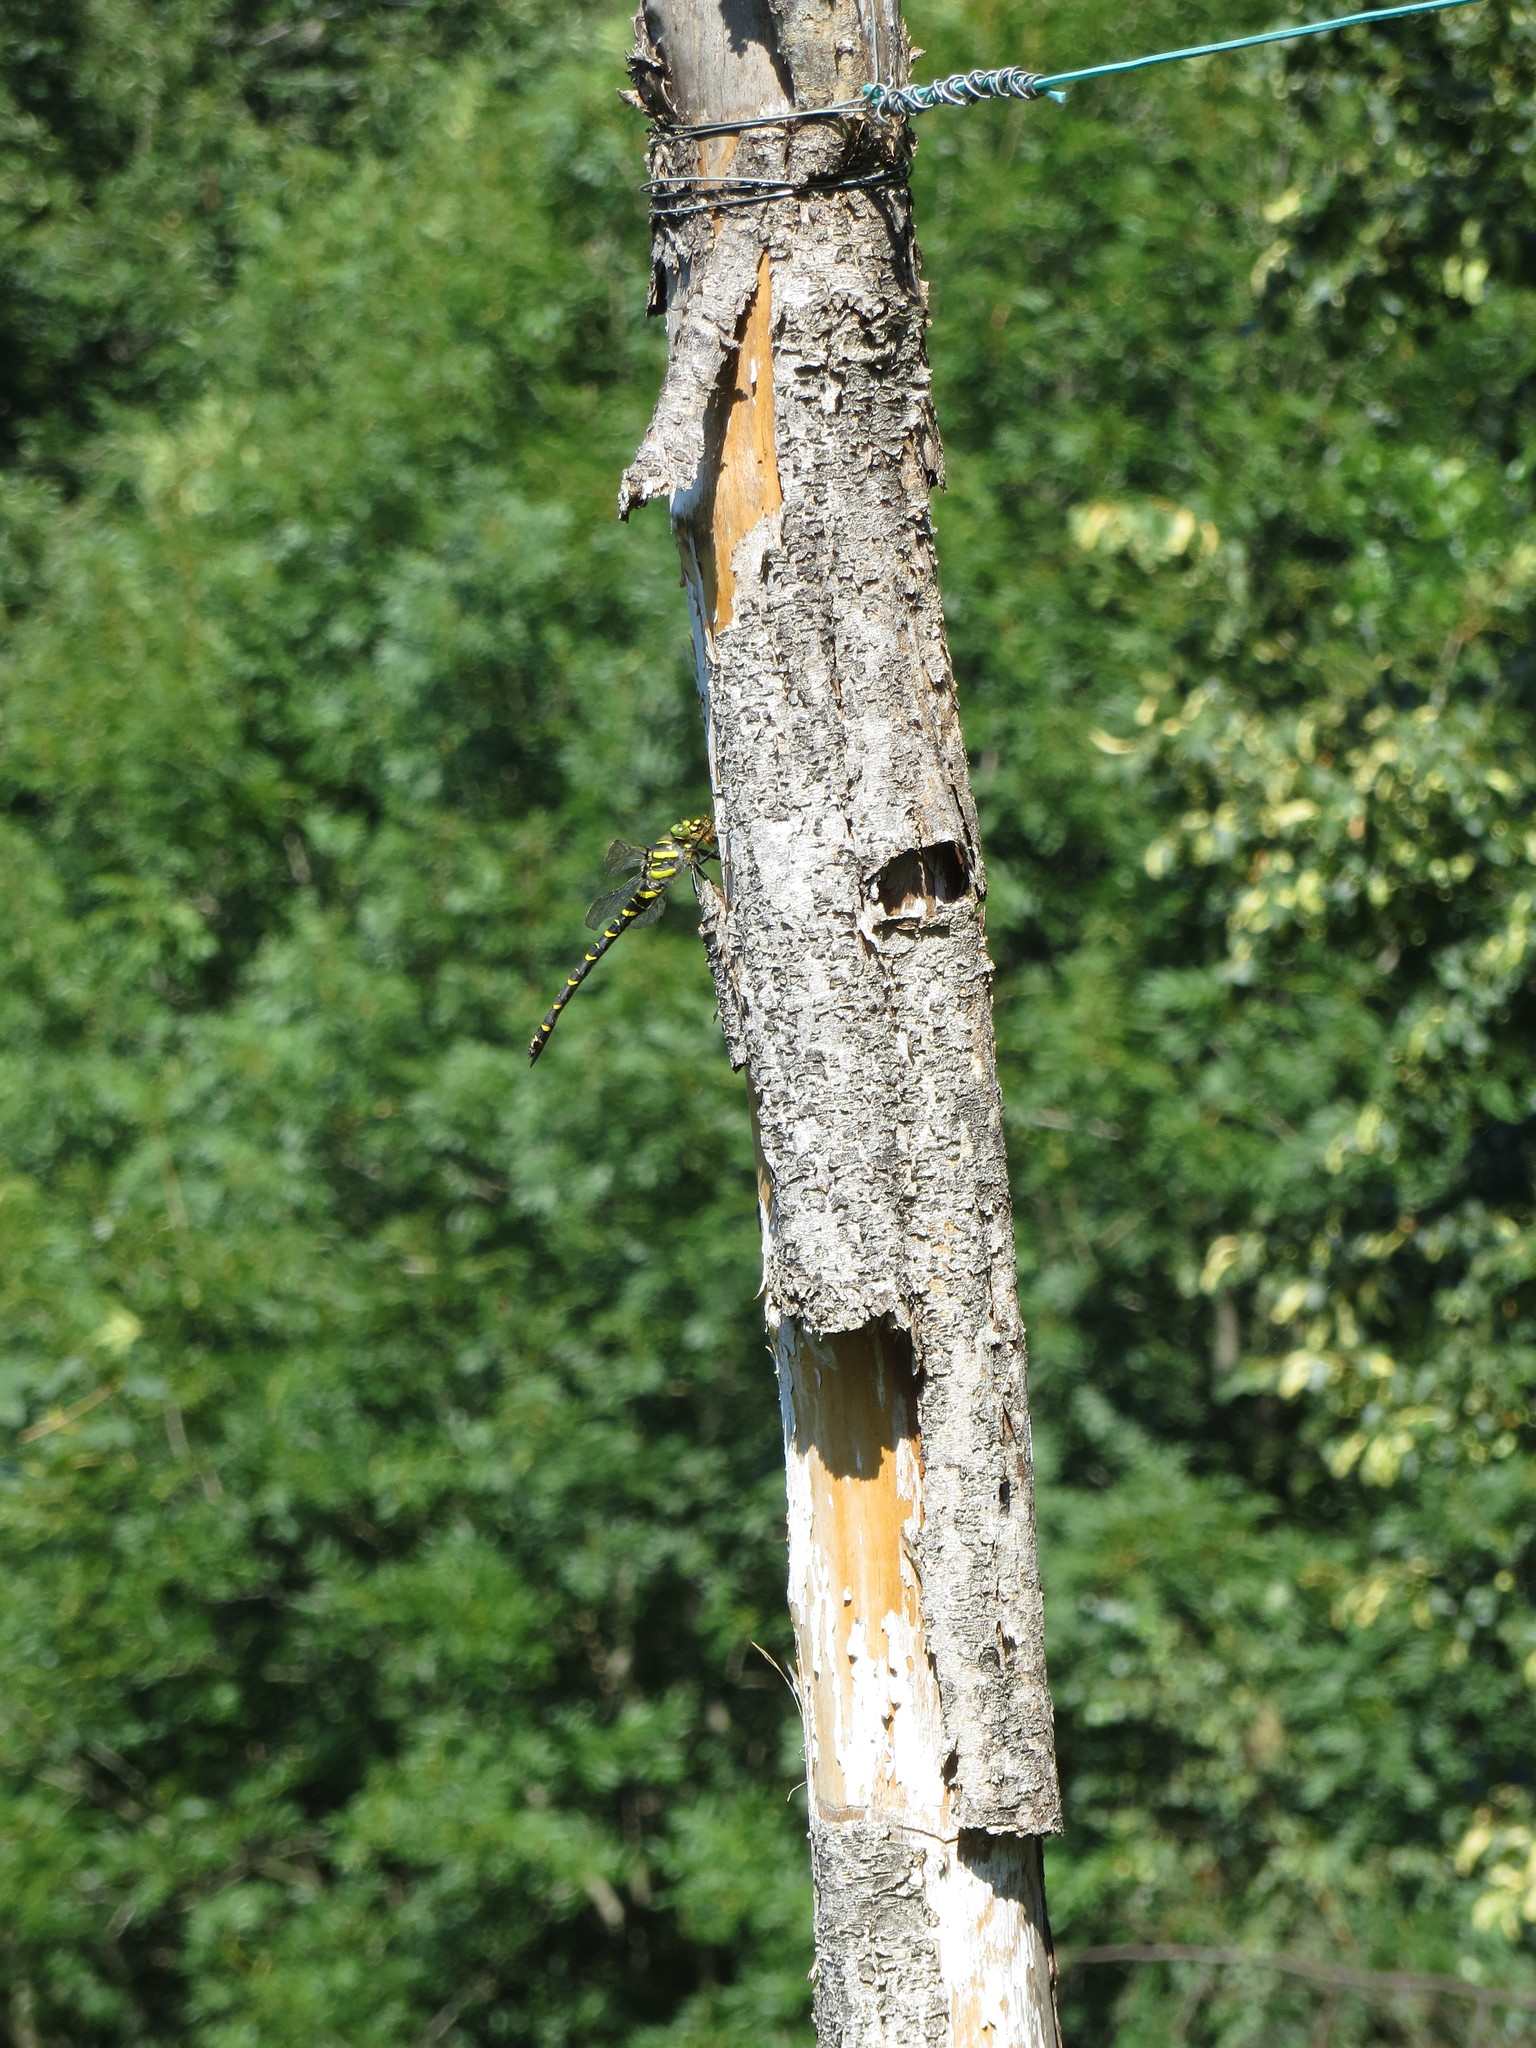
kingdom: Animalia
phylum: Arthropoda
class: Insecta
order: Odonata
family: Cordulegastridae
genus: Cordulegaster
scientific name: Cordulegaster boltonii
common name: Golden-ringed dragonfly
